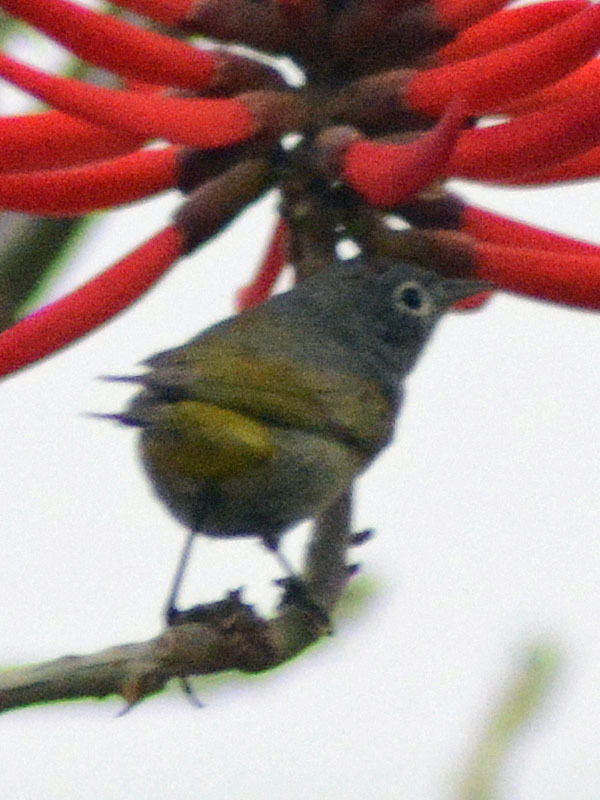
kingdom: Animalia
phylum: Chordata
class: Aves
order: Passeriformes
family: Parulidae
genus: Leiothlypis
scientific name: Leiothlypis ruficapilla
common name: Nashville warbler
